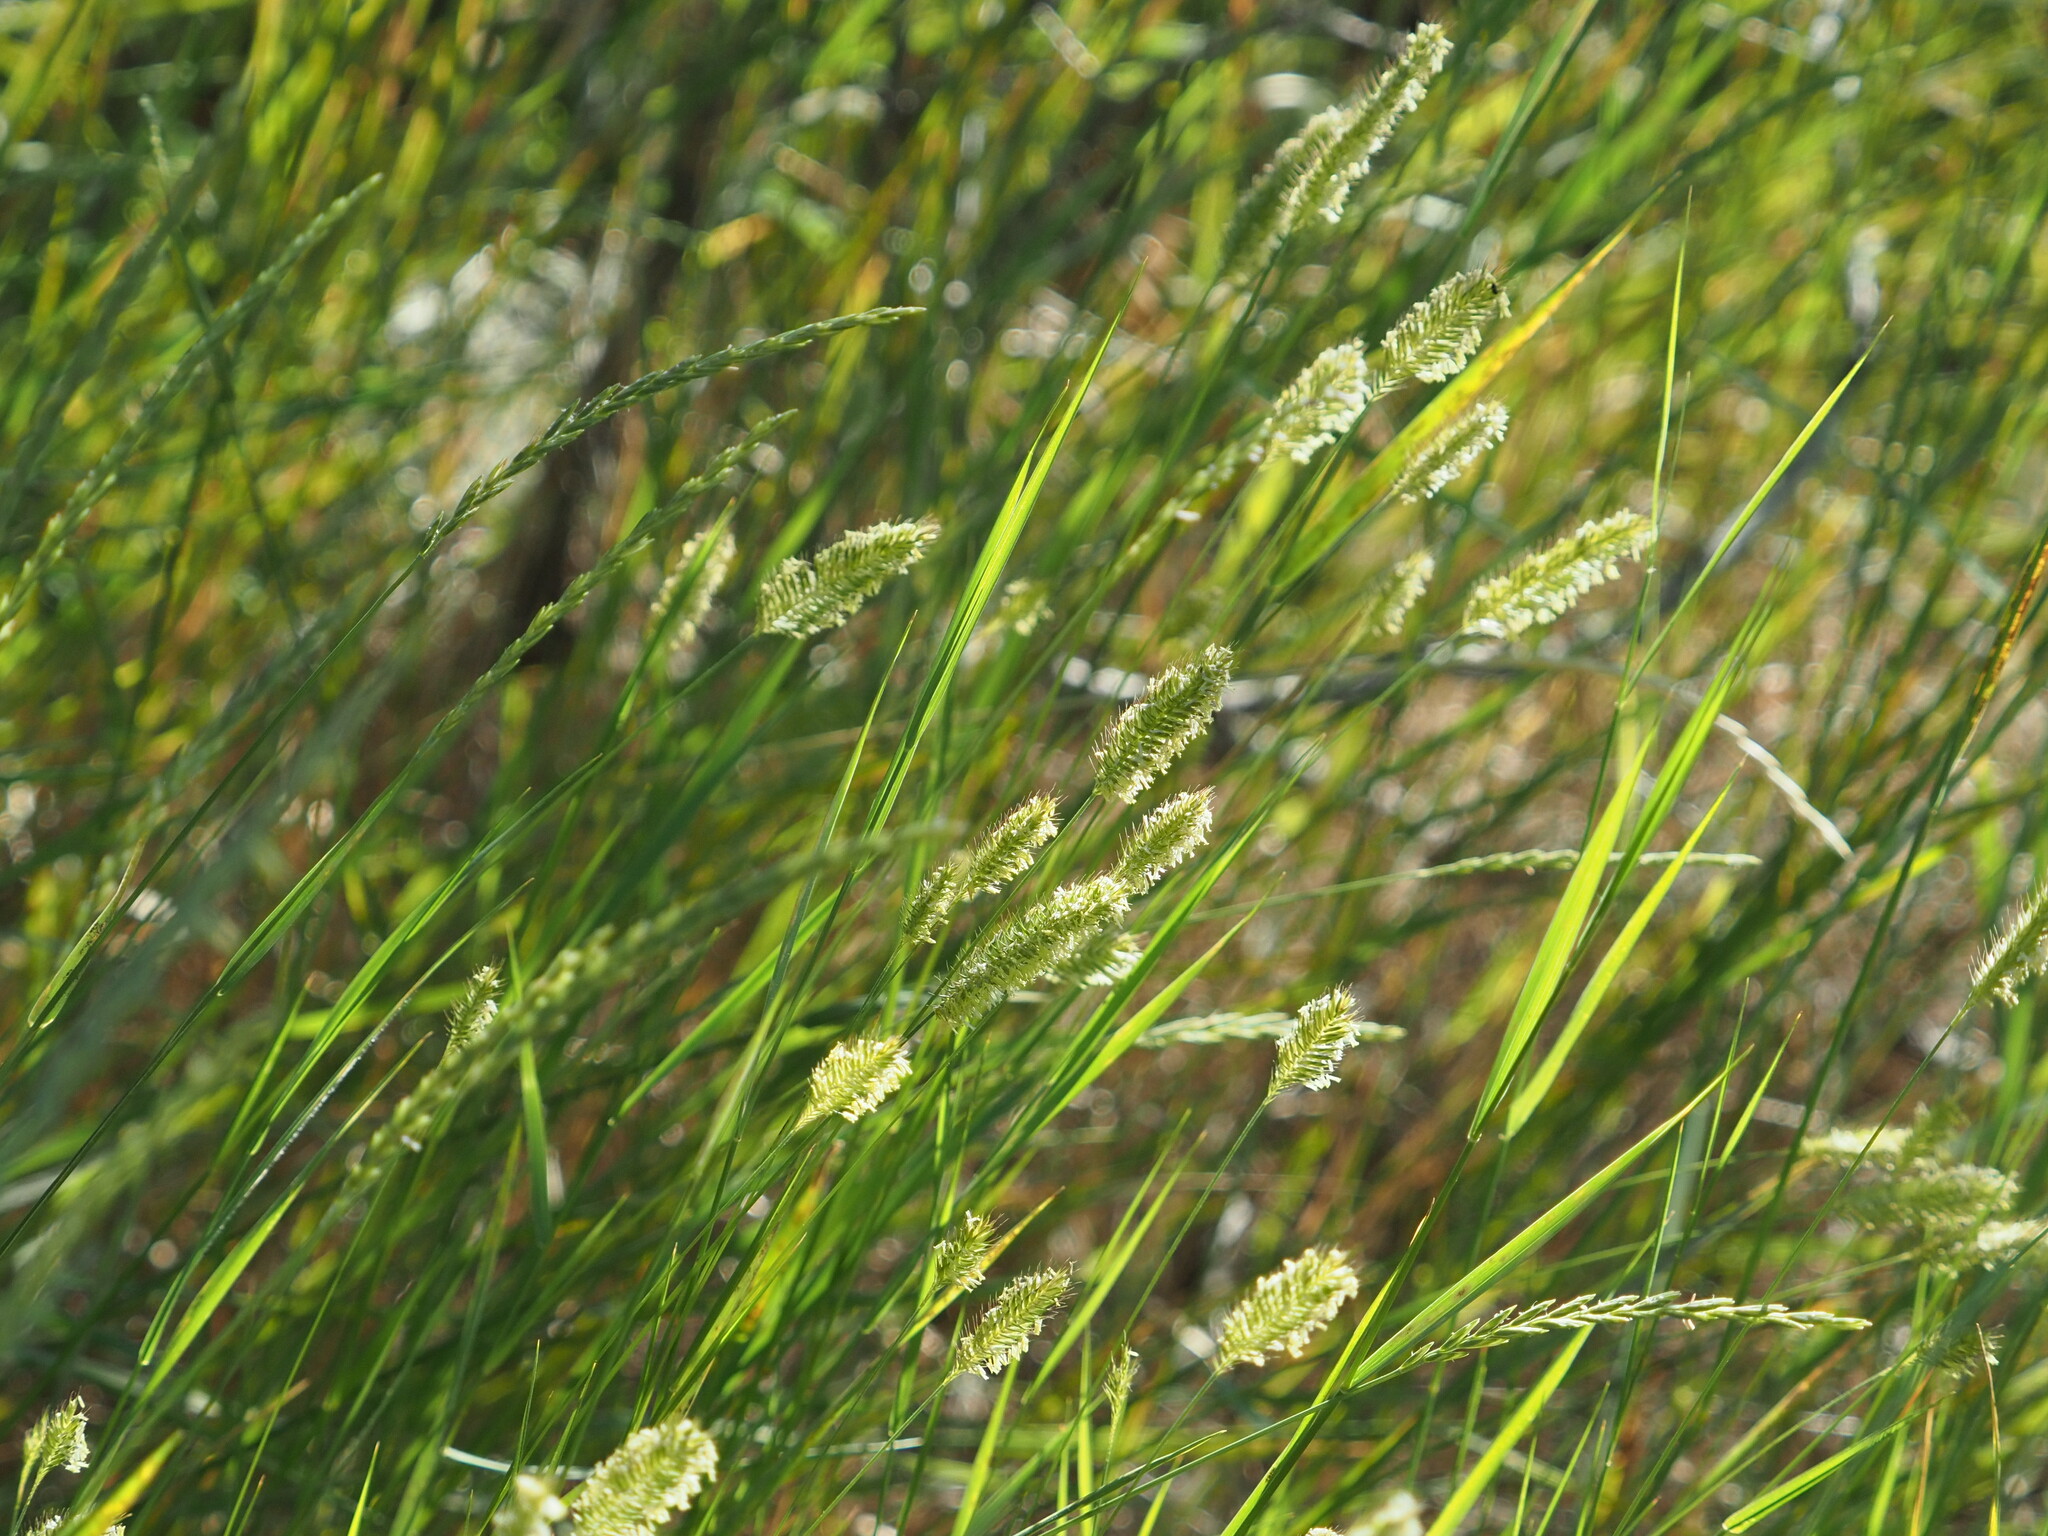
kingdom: Plantae
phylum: Tracheophyta
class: Liliopsida
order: Poales
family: Poaceae
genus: Agropyron
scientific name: Agropyron cristatum
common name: Crested wheatgrass
